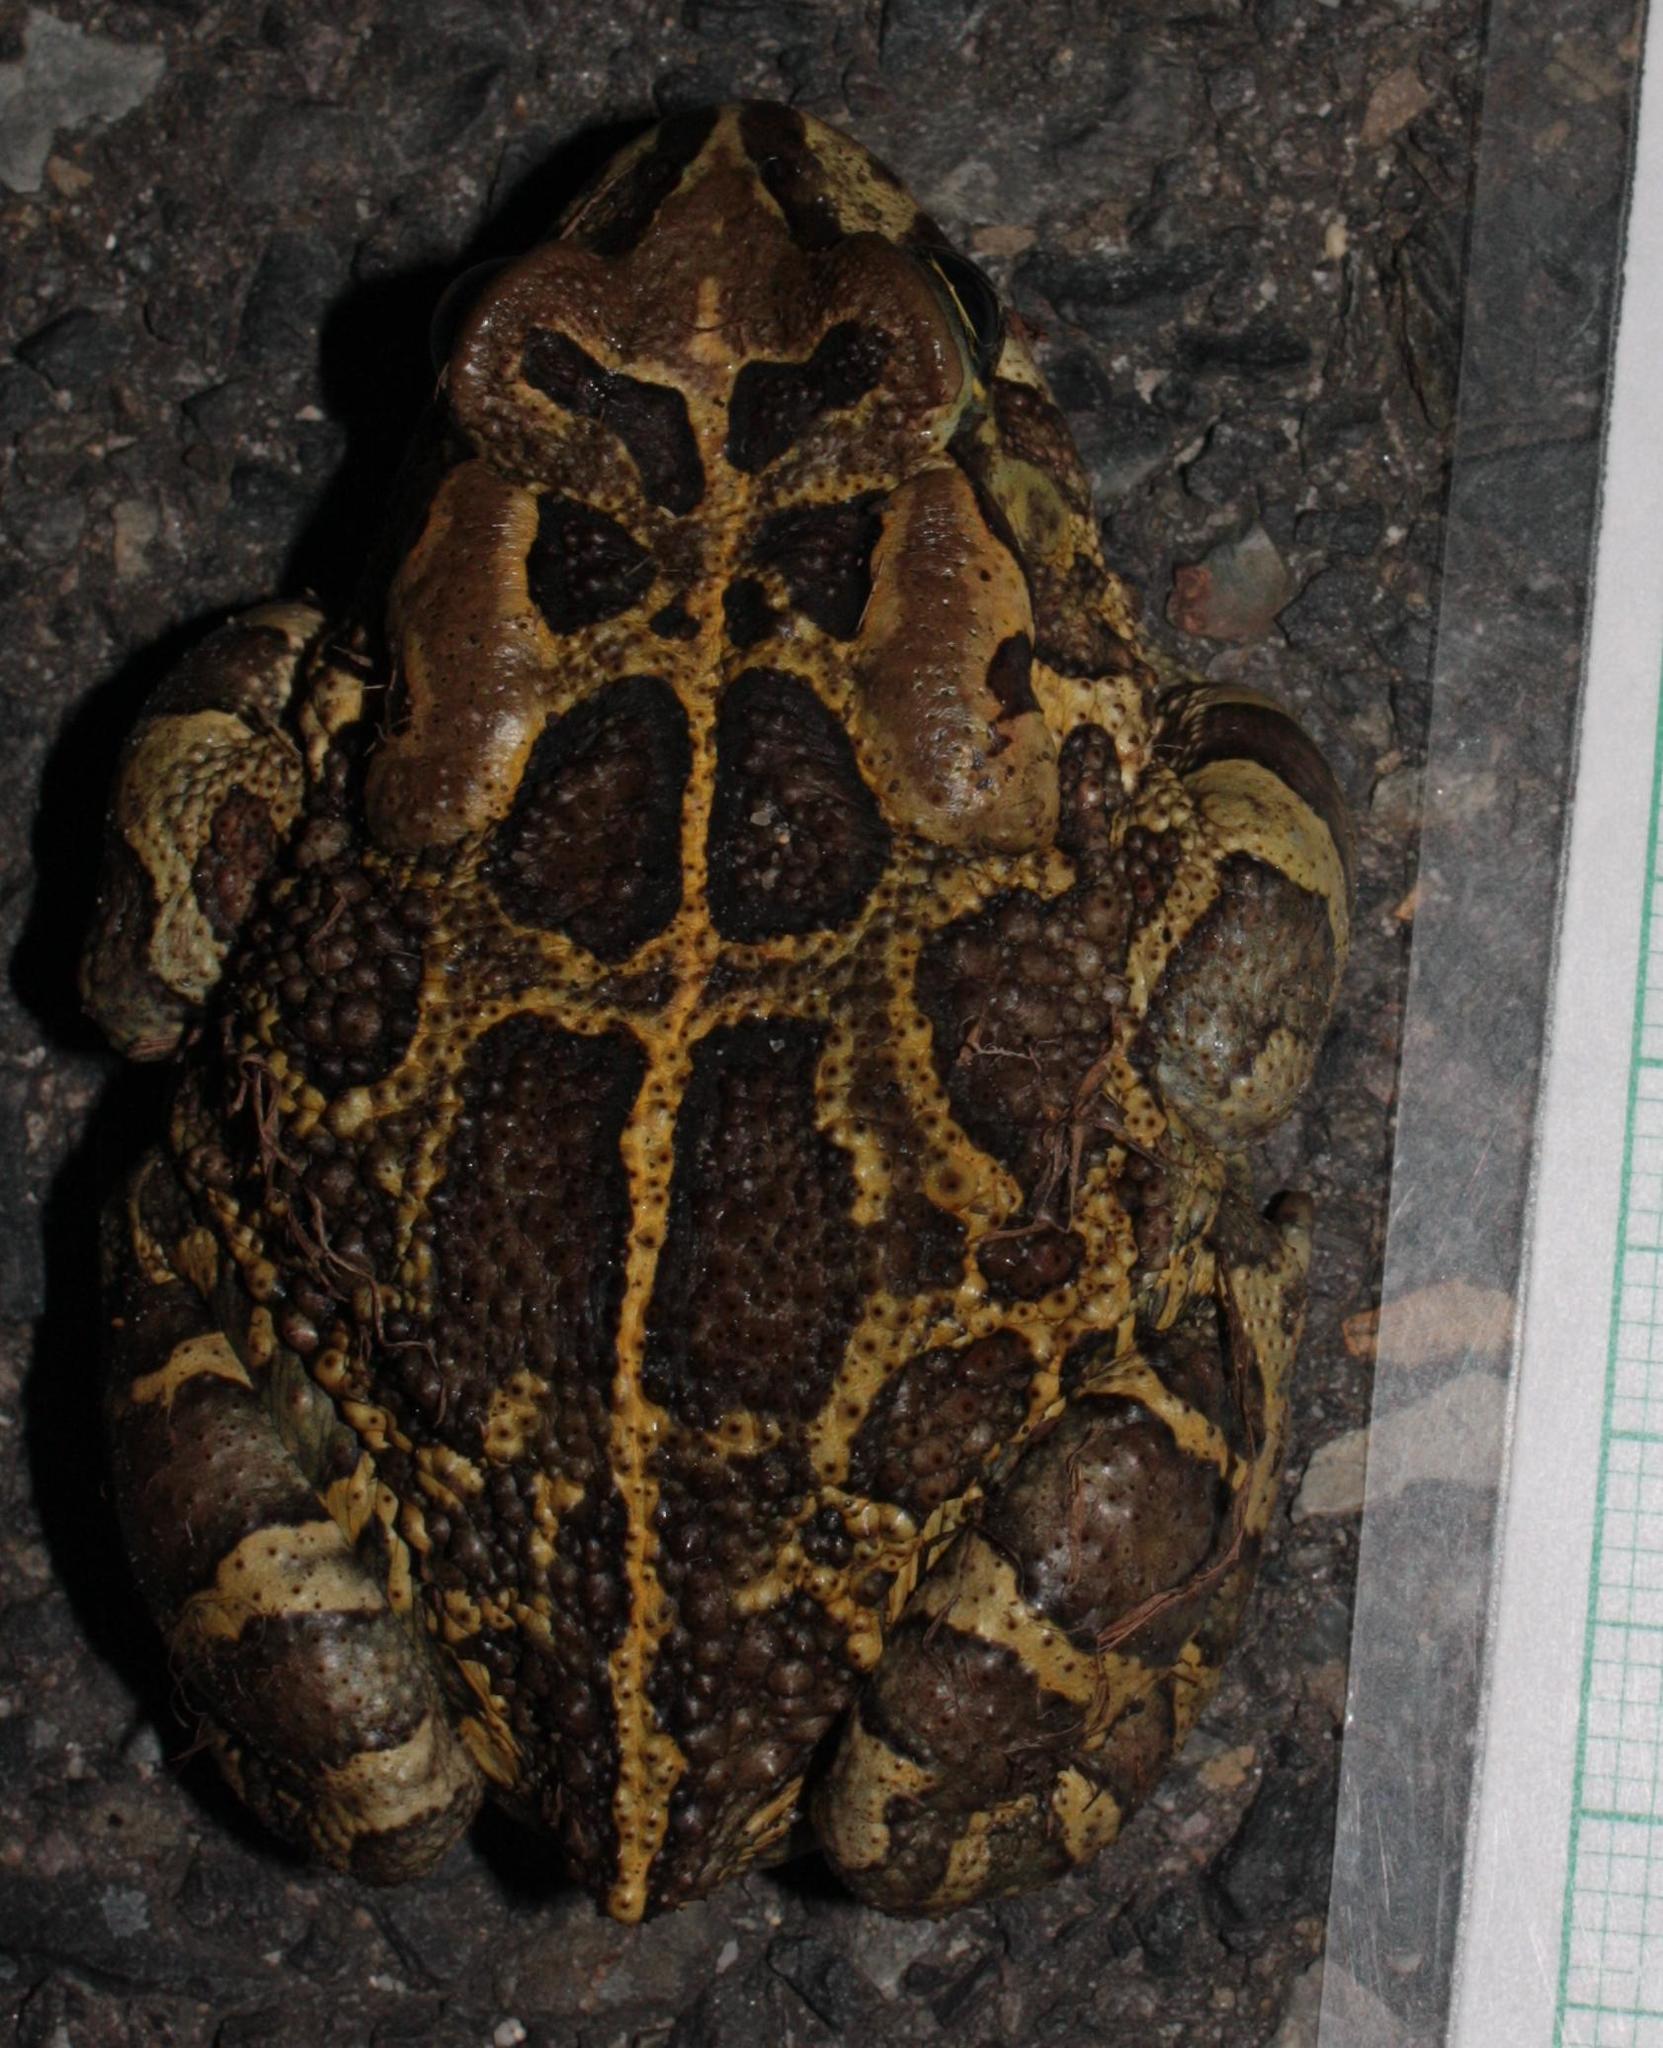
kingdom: Animalia
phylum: Chordata
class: Amphibia
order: Anura
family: Bufonidae
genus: Sclerophrys
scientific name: Sclerophrys pantherina
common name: Panther toad
